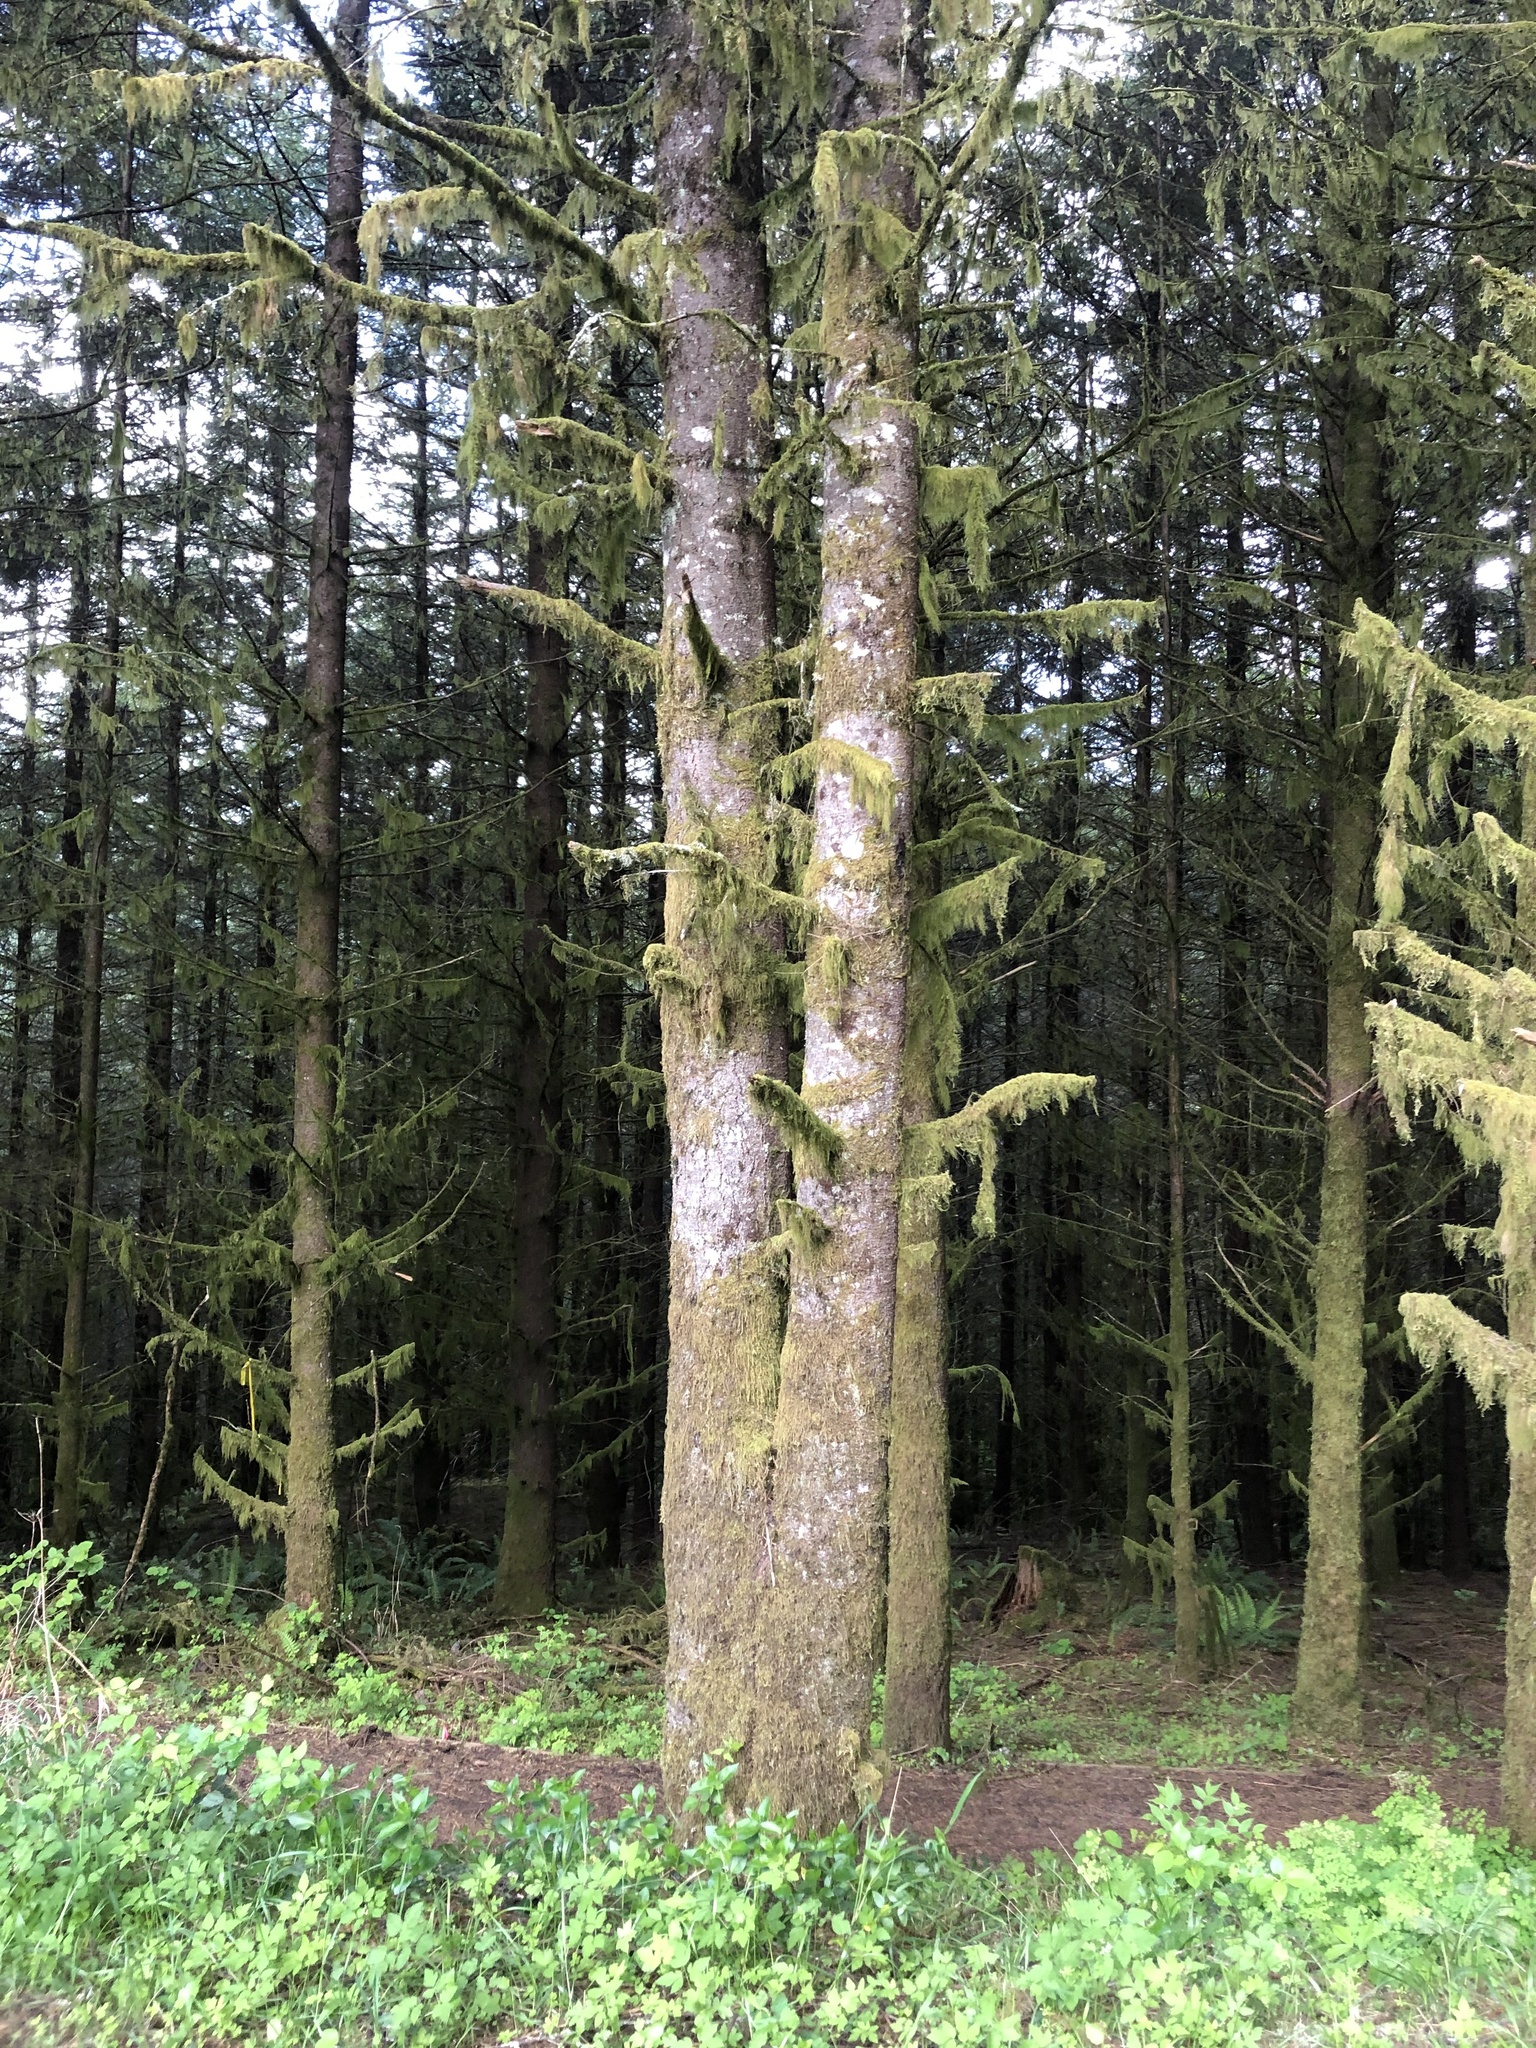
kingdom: Plantae
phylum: Tracheophyta
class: Pinopsida
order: Pinales
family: Pinaceae
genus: Pseudotsuga
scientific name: Pseudotsuga menziesii
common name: Douglas fir
